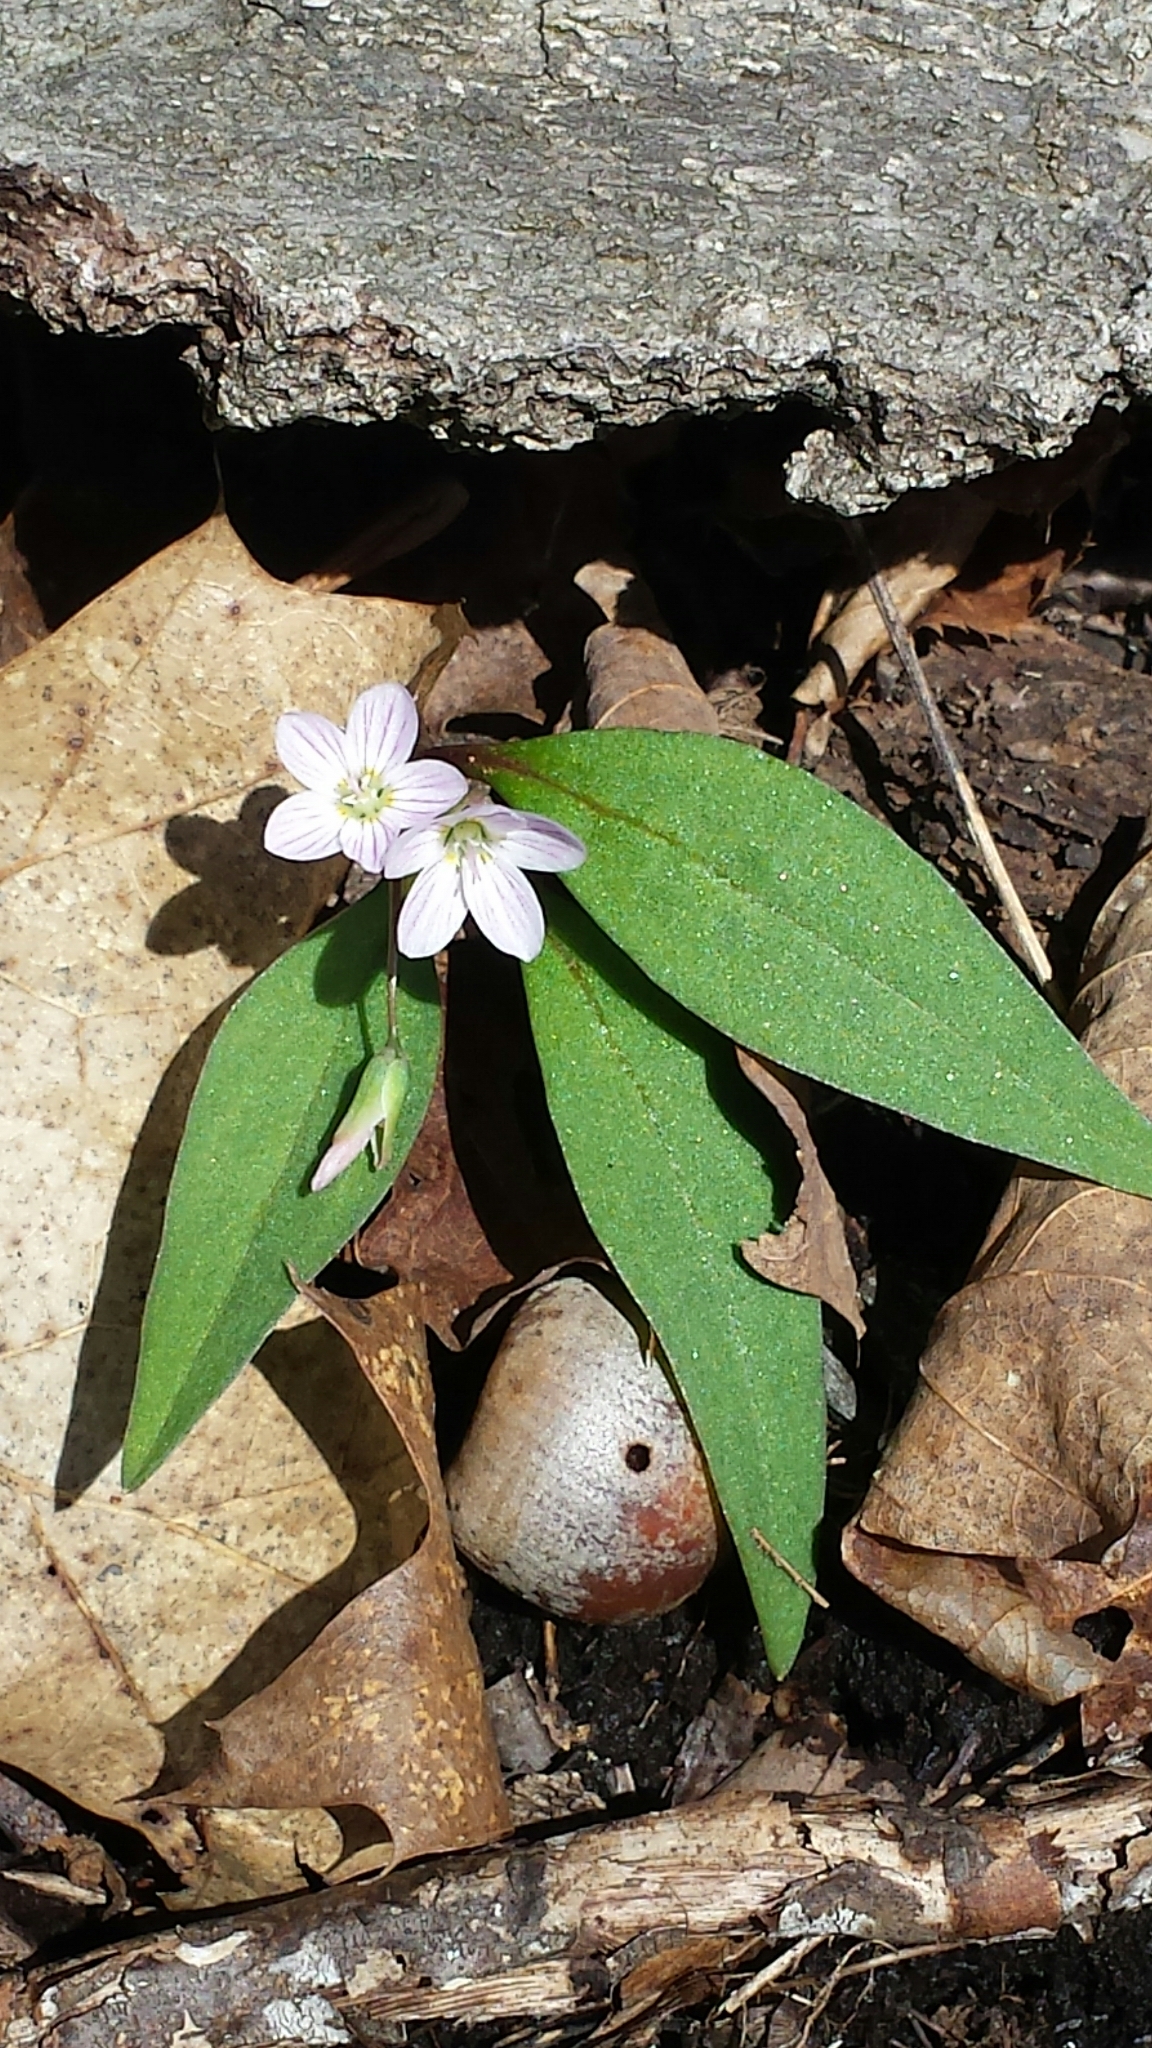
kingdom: Plantae
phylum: Tracheophyta
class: Magnoliopsida
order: Caryophyllales
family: Montiaceae
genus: Claytonia
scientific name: Claytonia caroliniana
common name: Carolina spring beauty
